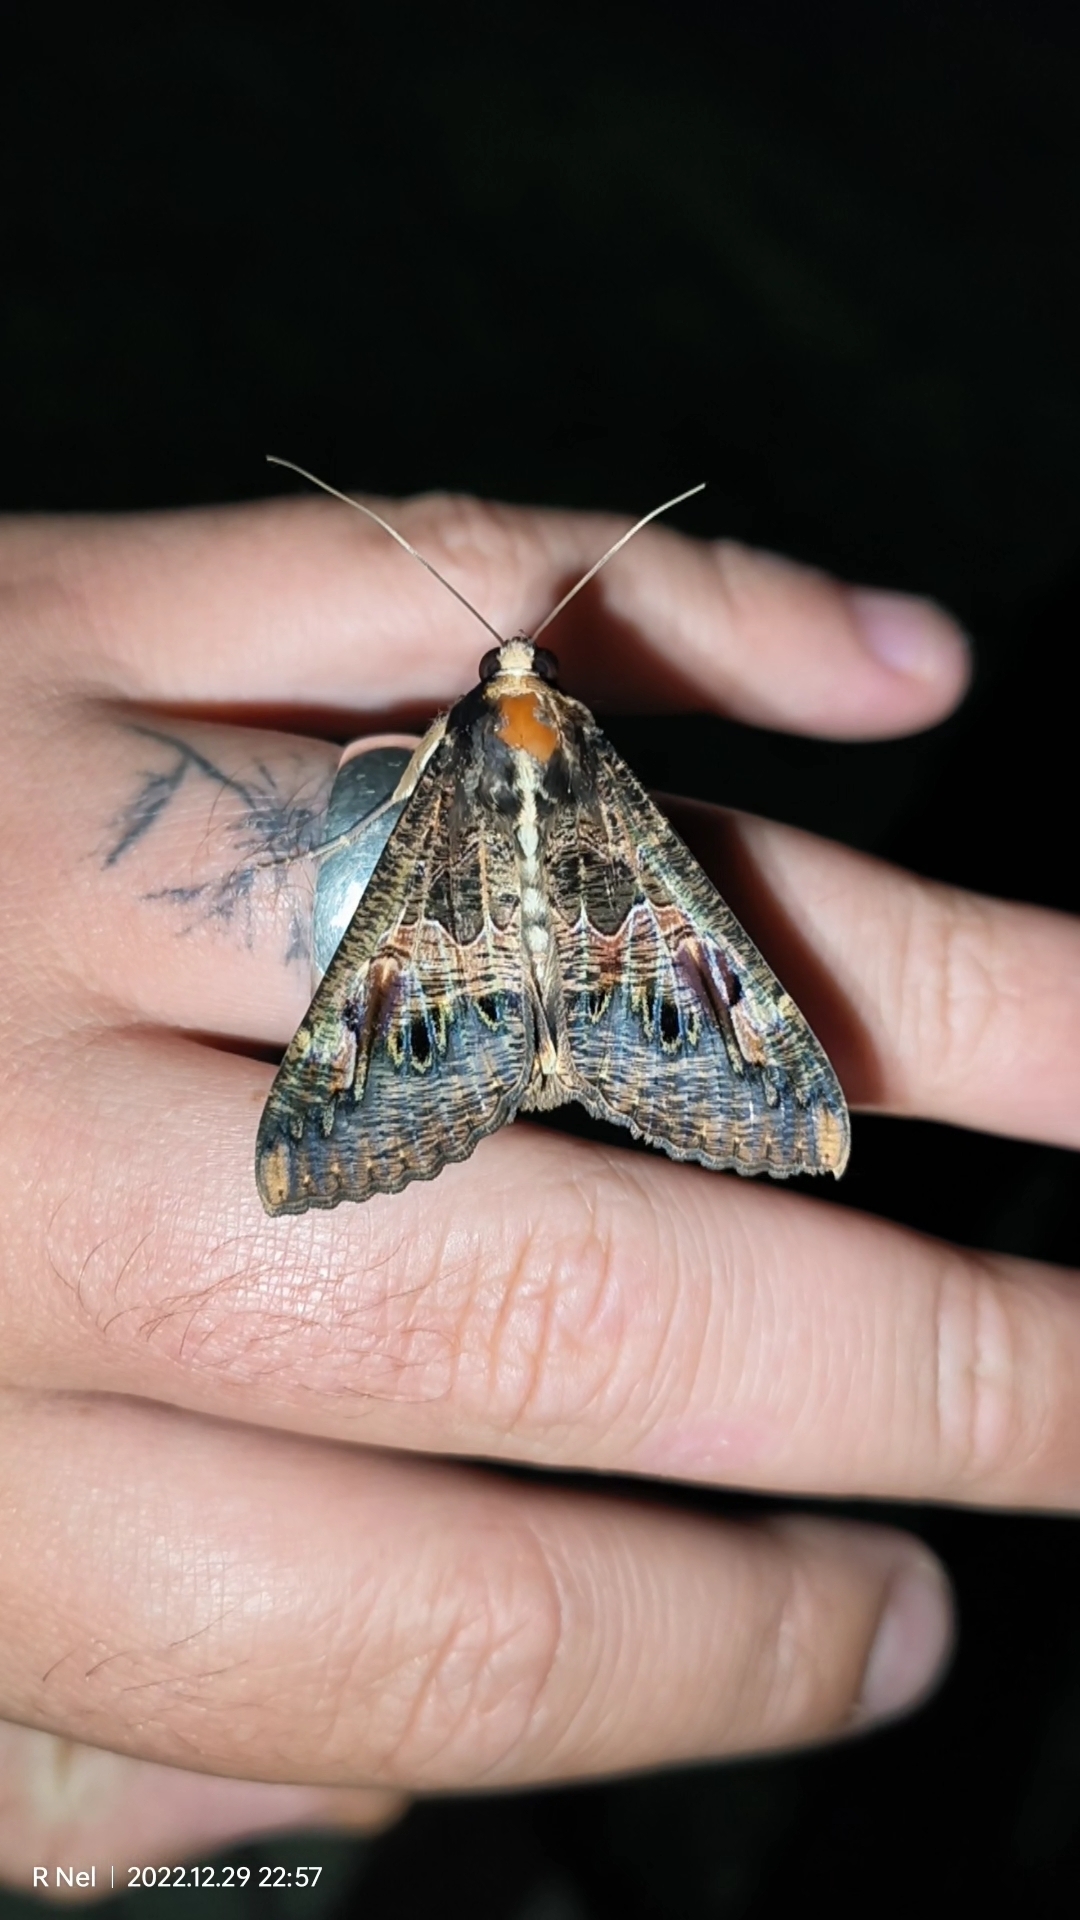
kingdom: Animalia
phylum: Arthropoda
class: Insecta
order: Lepidoptera
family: Erebidae
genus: Sphingomorpha
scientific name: Sphingomorpha chlorea
